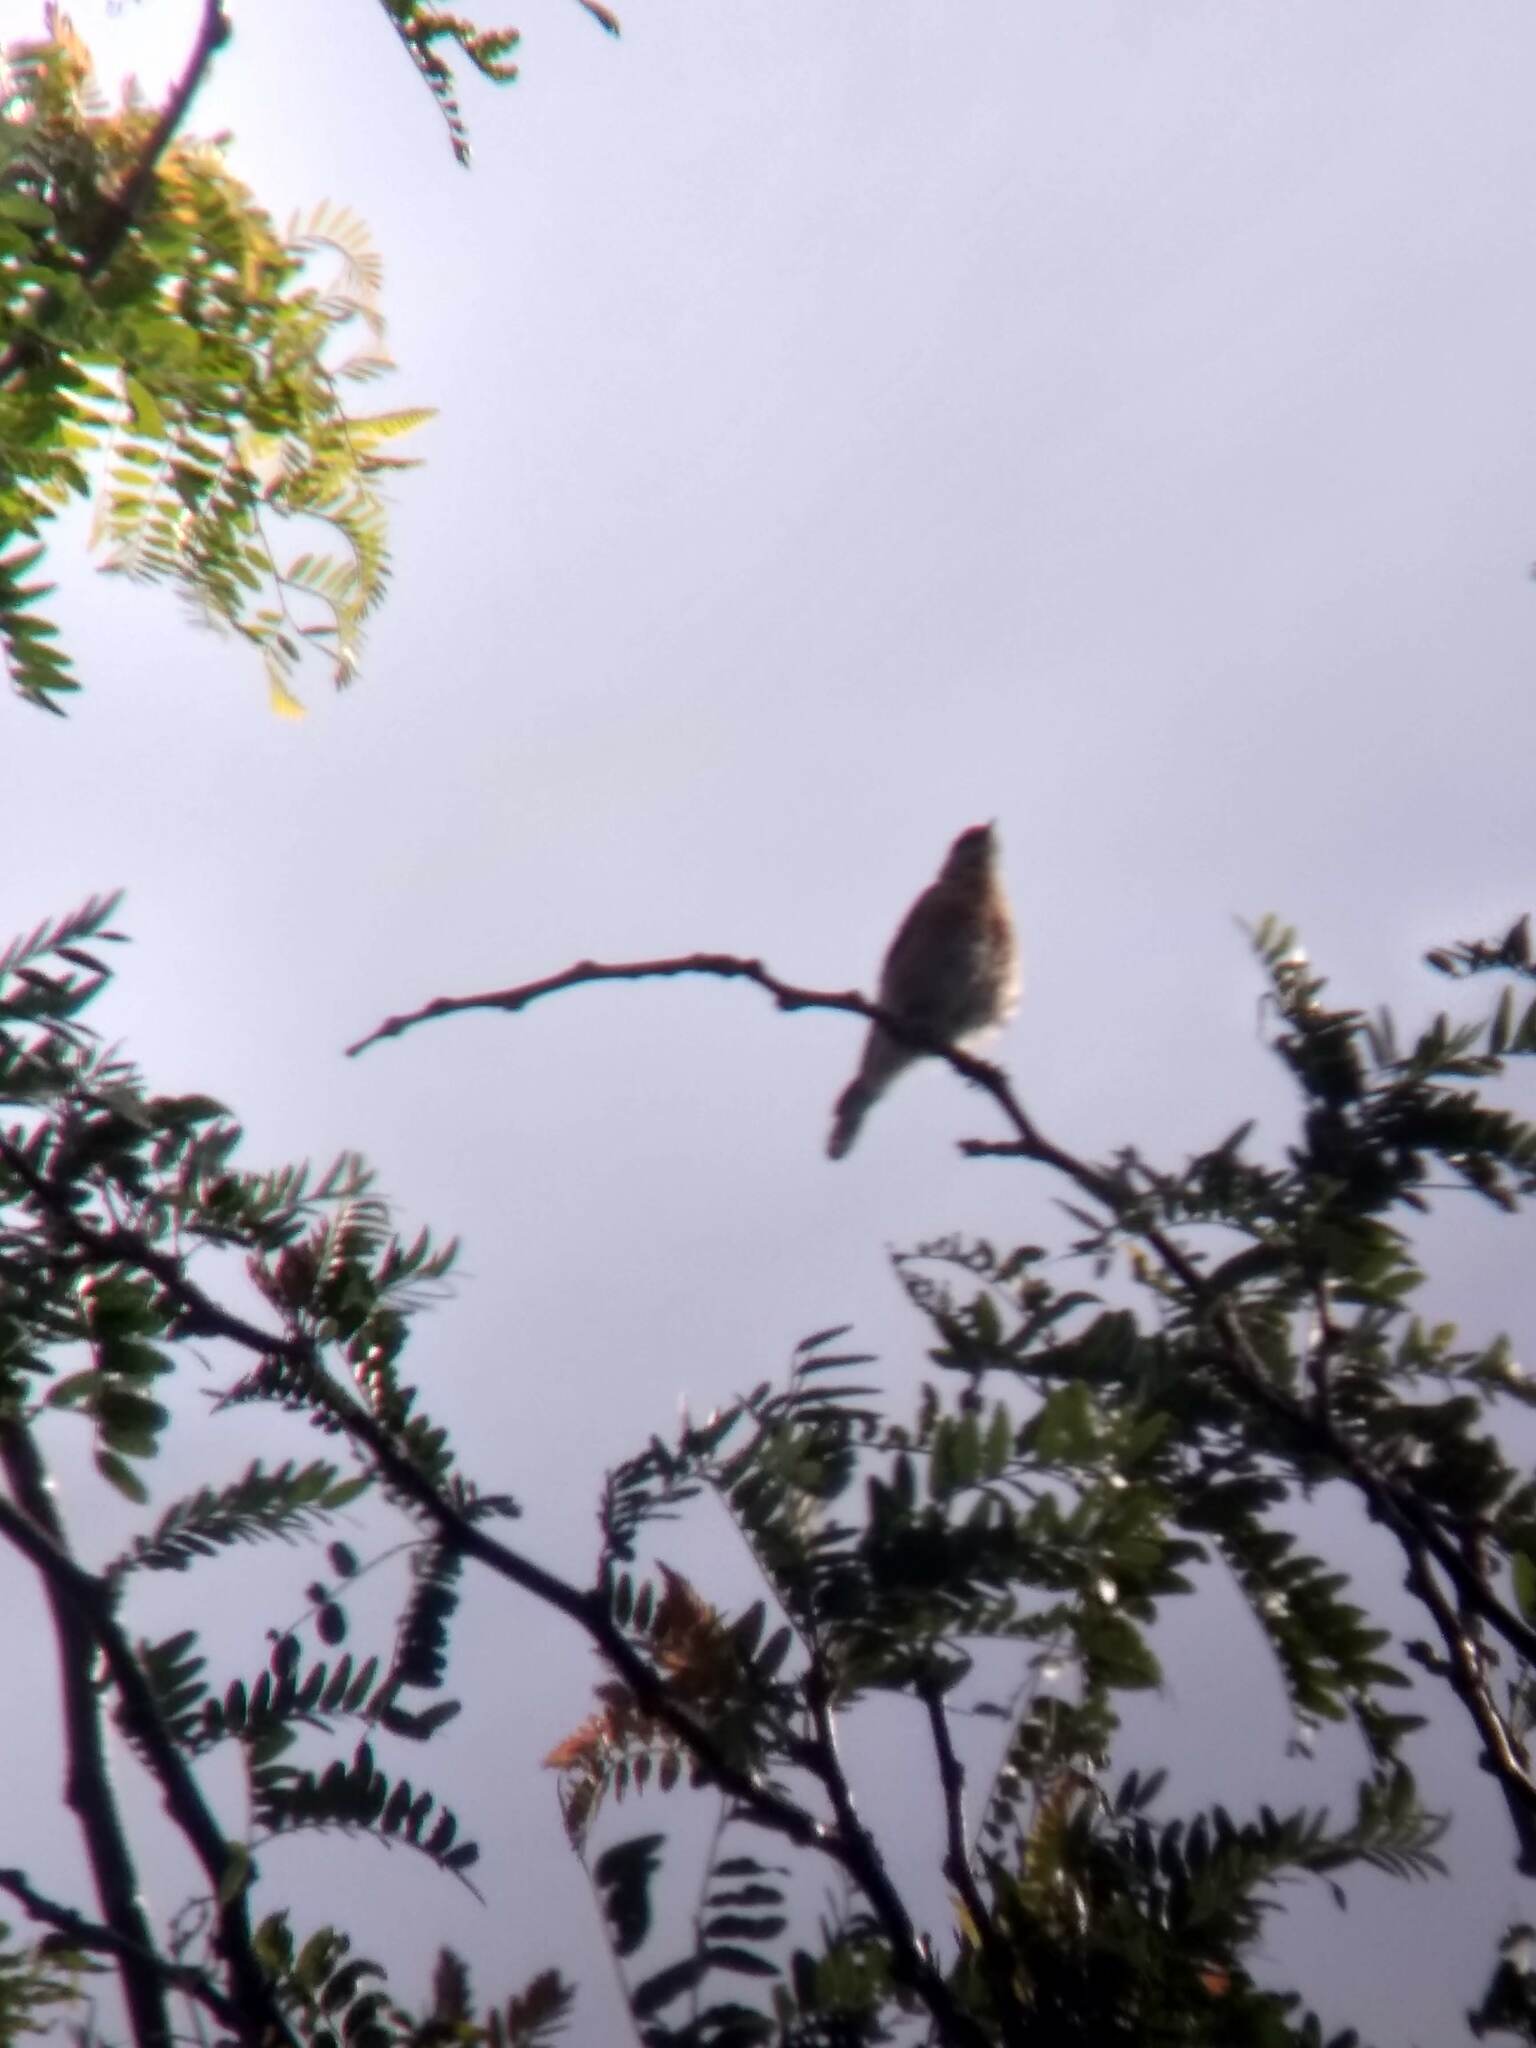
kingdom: Animalia
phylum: Chordata
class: Aves
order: Passeriformes
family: Turdidae
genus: Sialia
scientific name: Sialia mexicana
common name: Western bluebird
